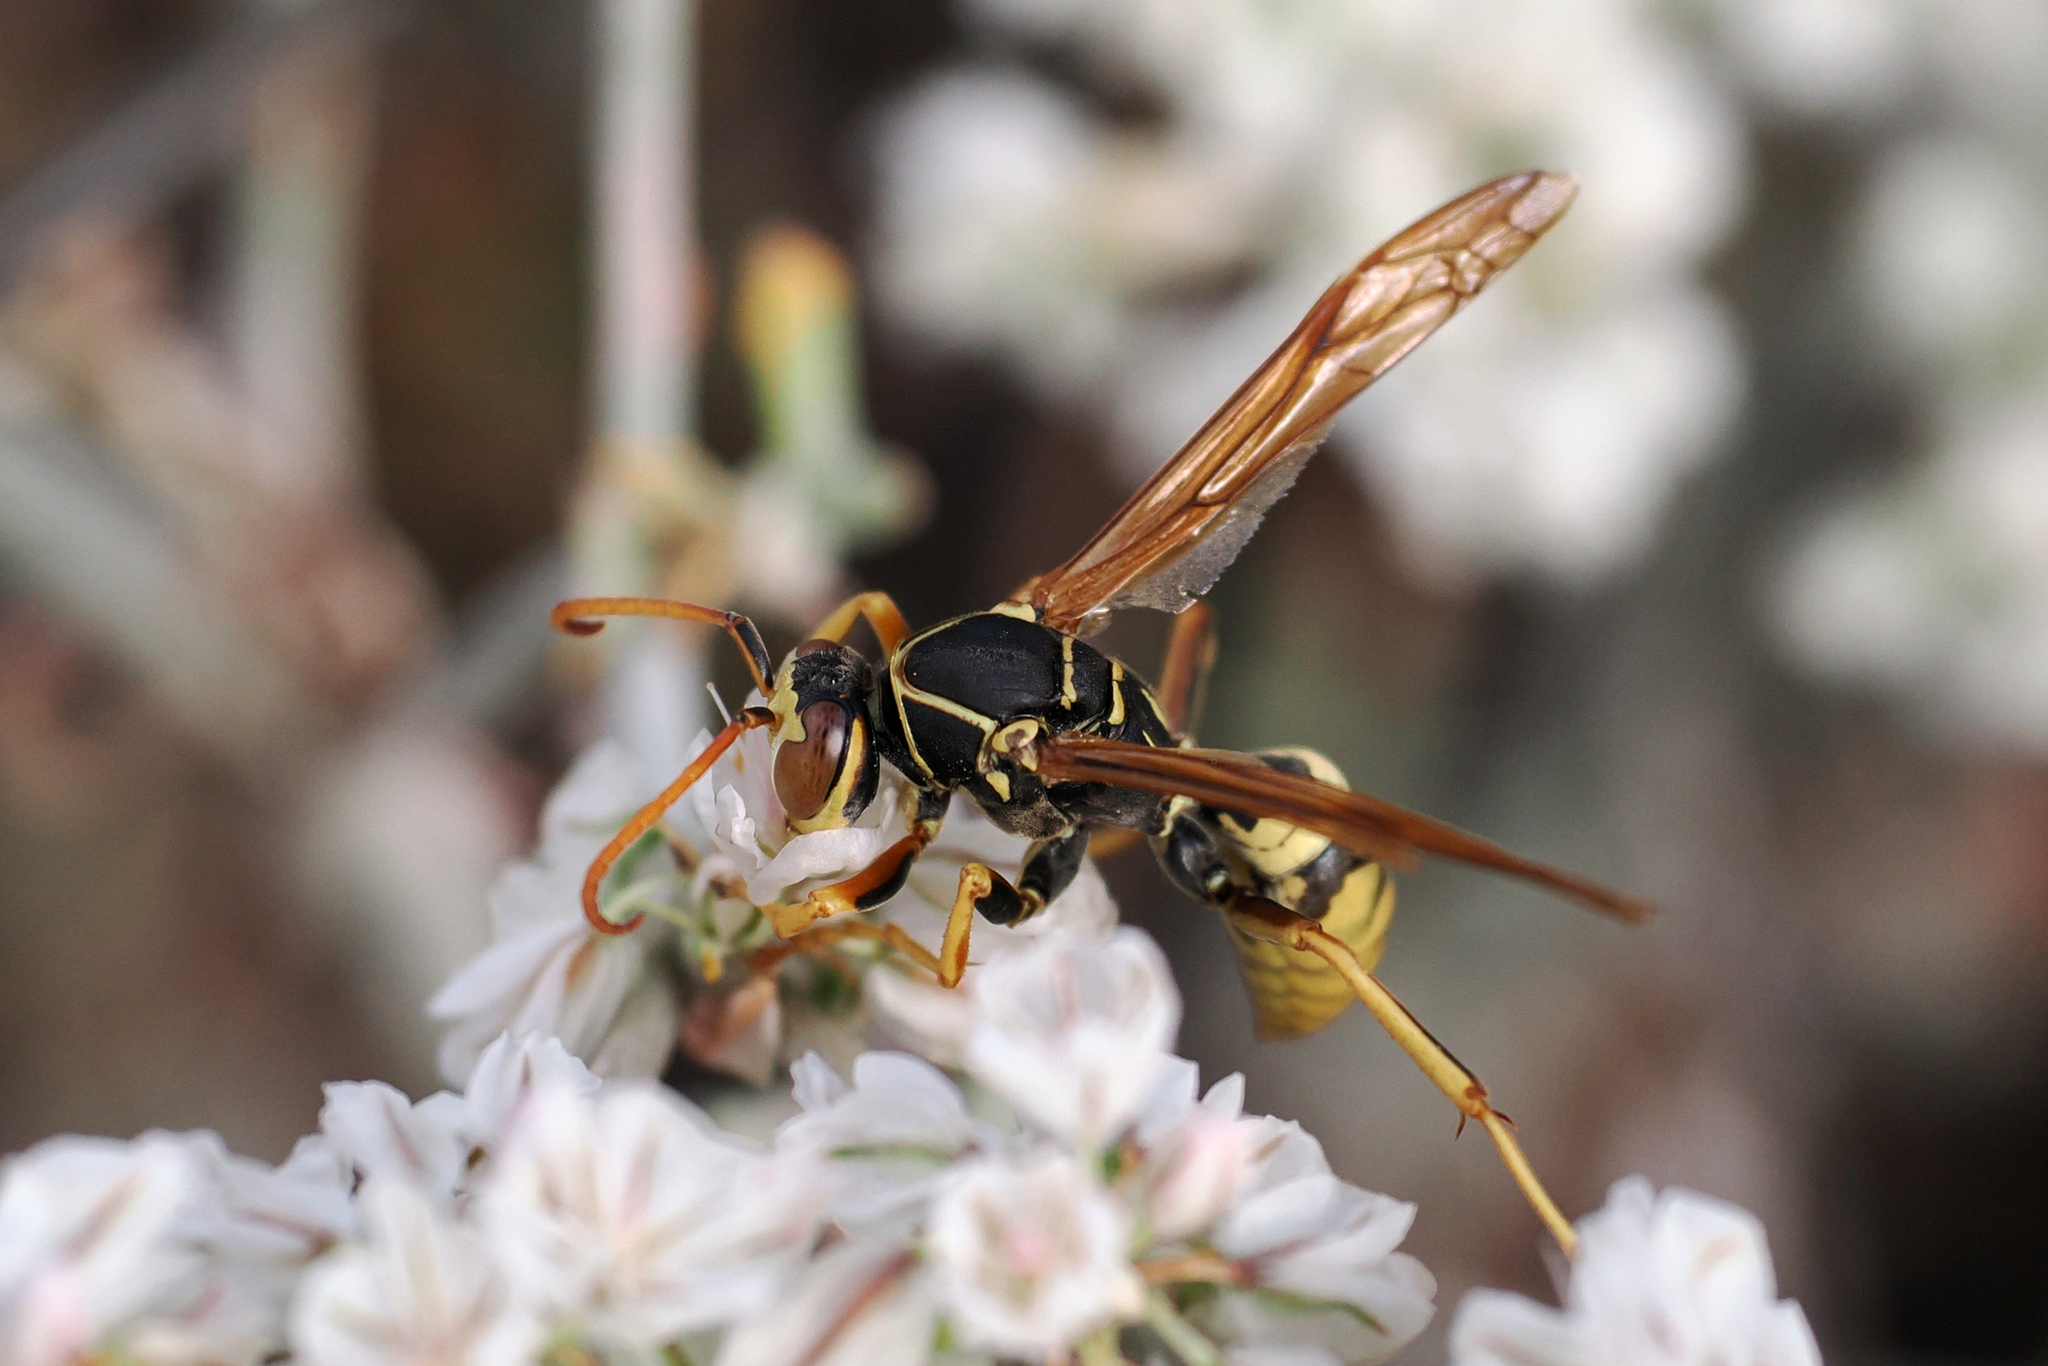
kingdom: Animalia
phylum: Arthropoda
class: Insecta
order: Hymenoptera
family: Eumenidae
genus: Polistes
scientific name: Polistes aurifer
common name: Paper wasp
